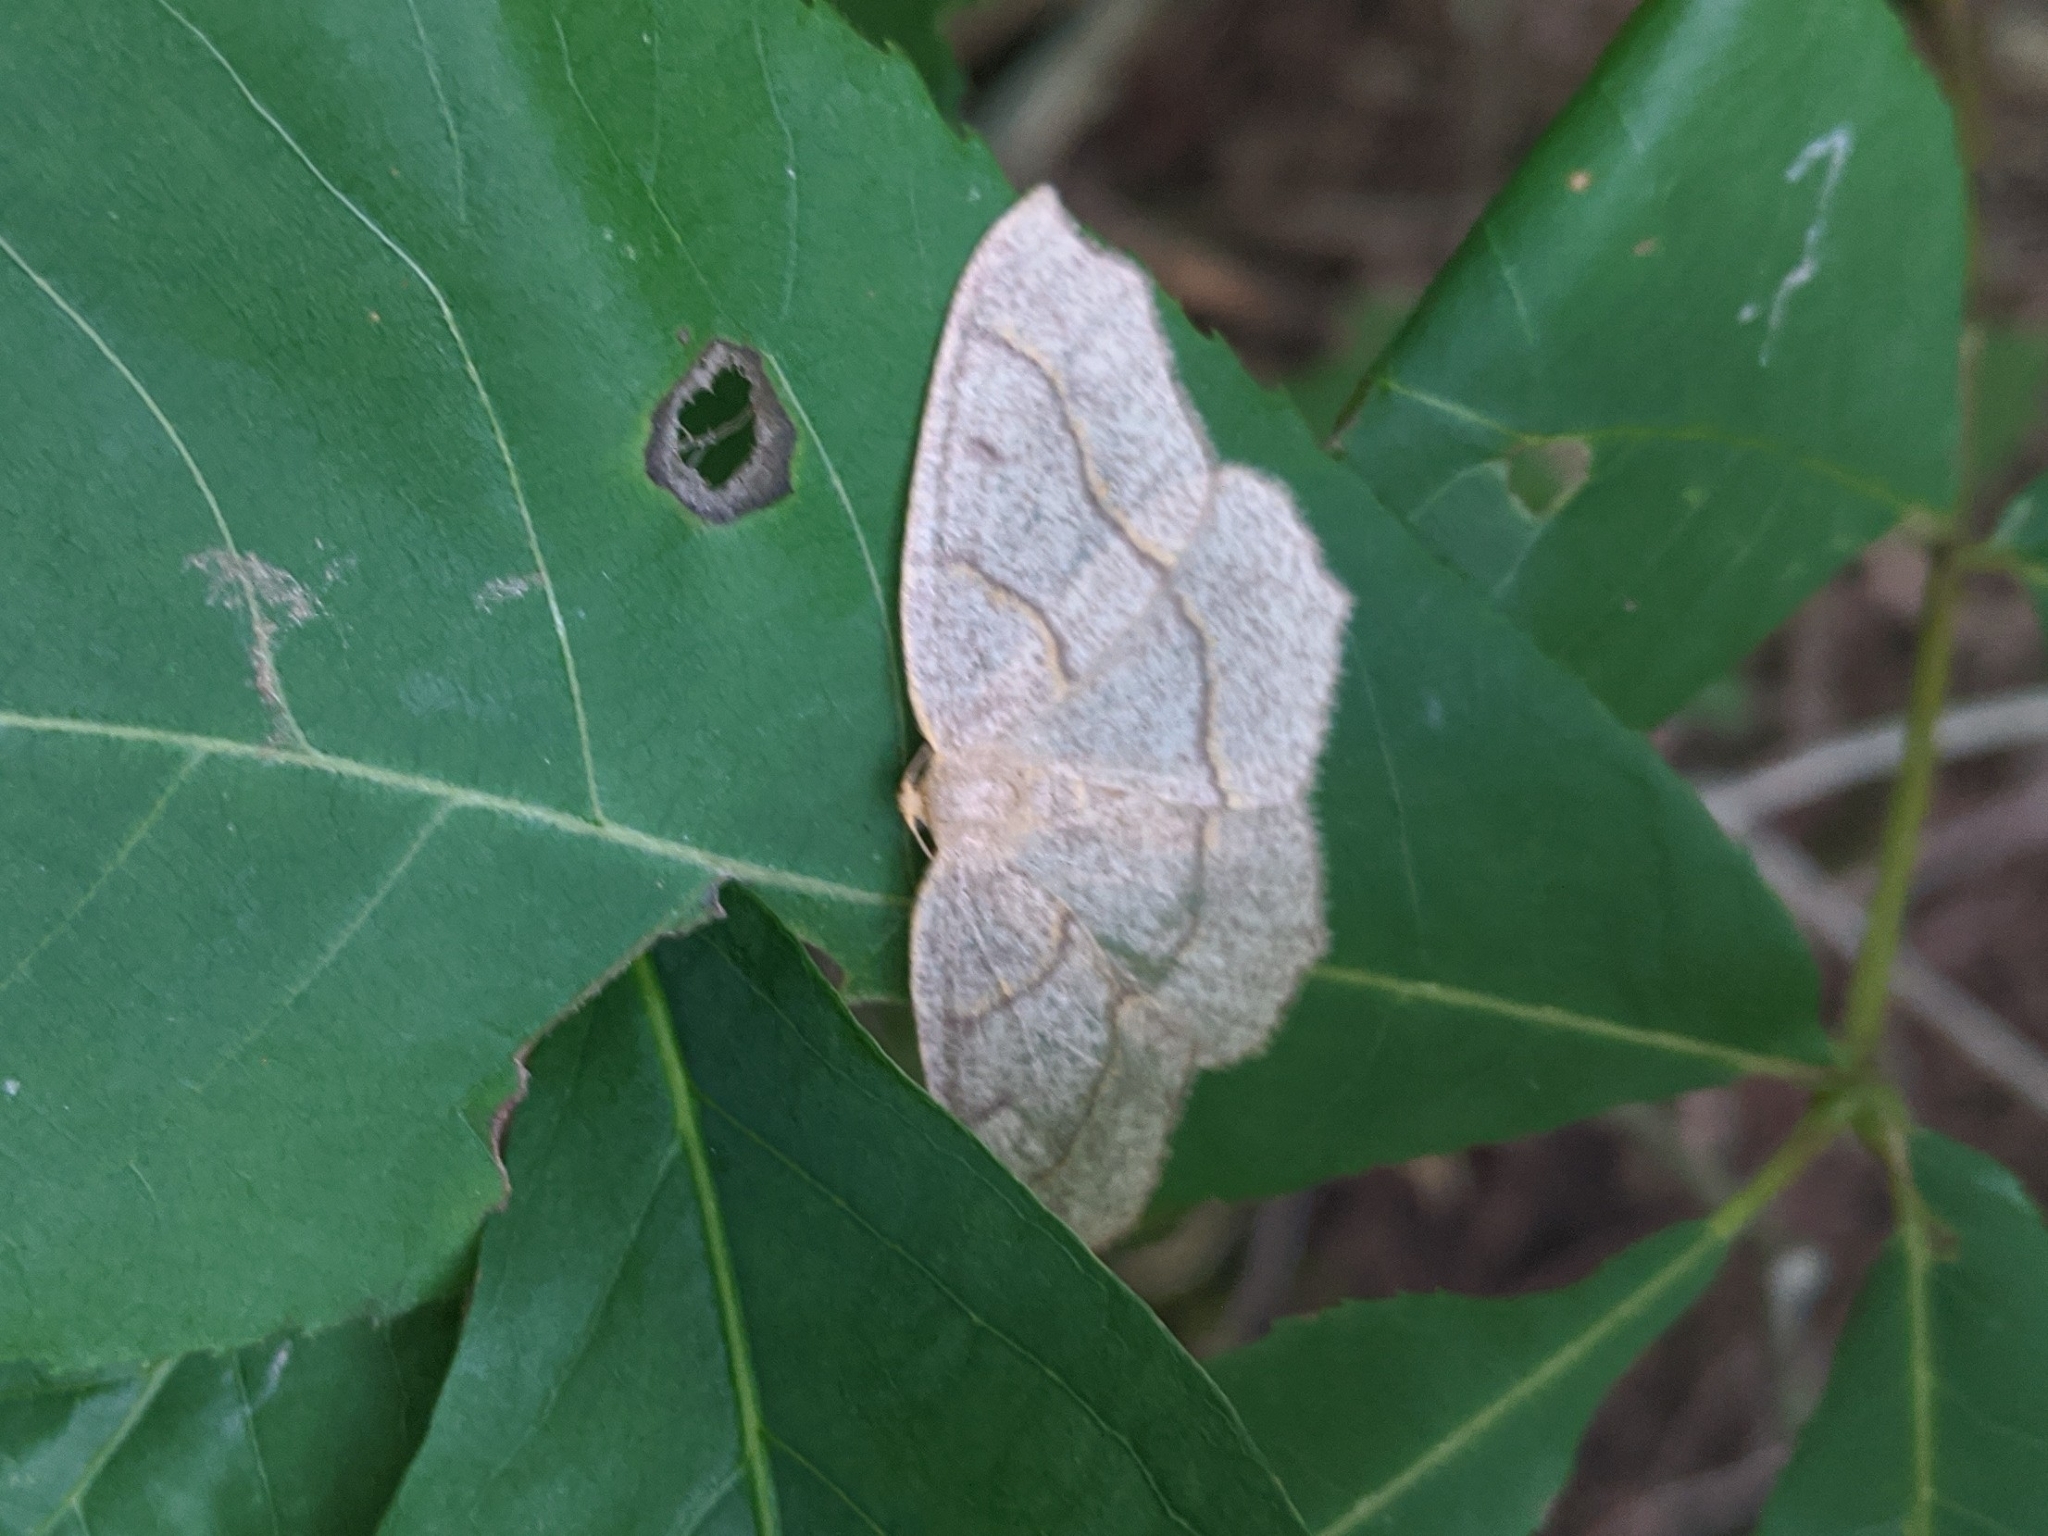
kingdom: Animalia
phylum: Arthropoda
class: Insecta
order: Lepidoptera
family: Geometridae
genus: Lambdina
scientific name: Lambdina fiscellaria
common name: Hemlock looper
